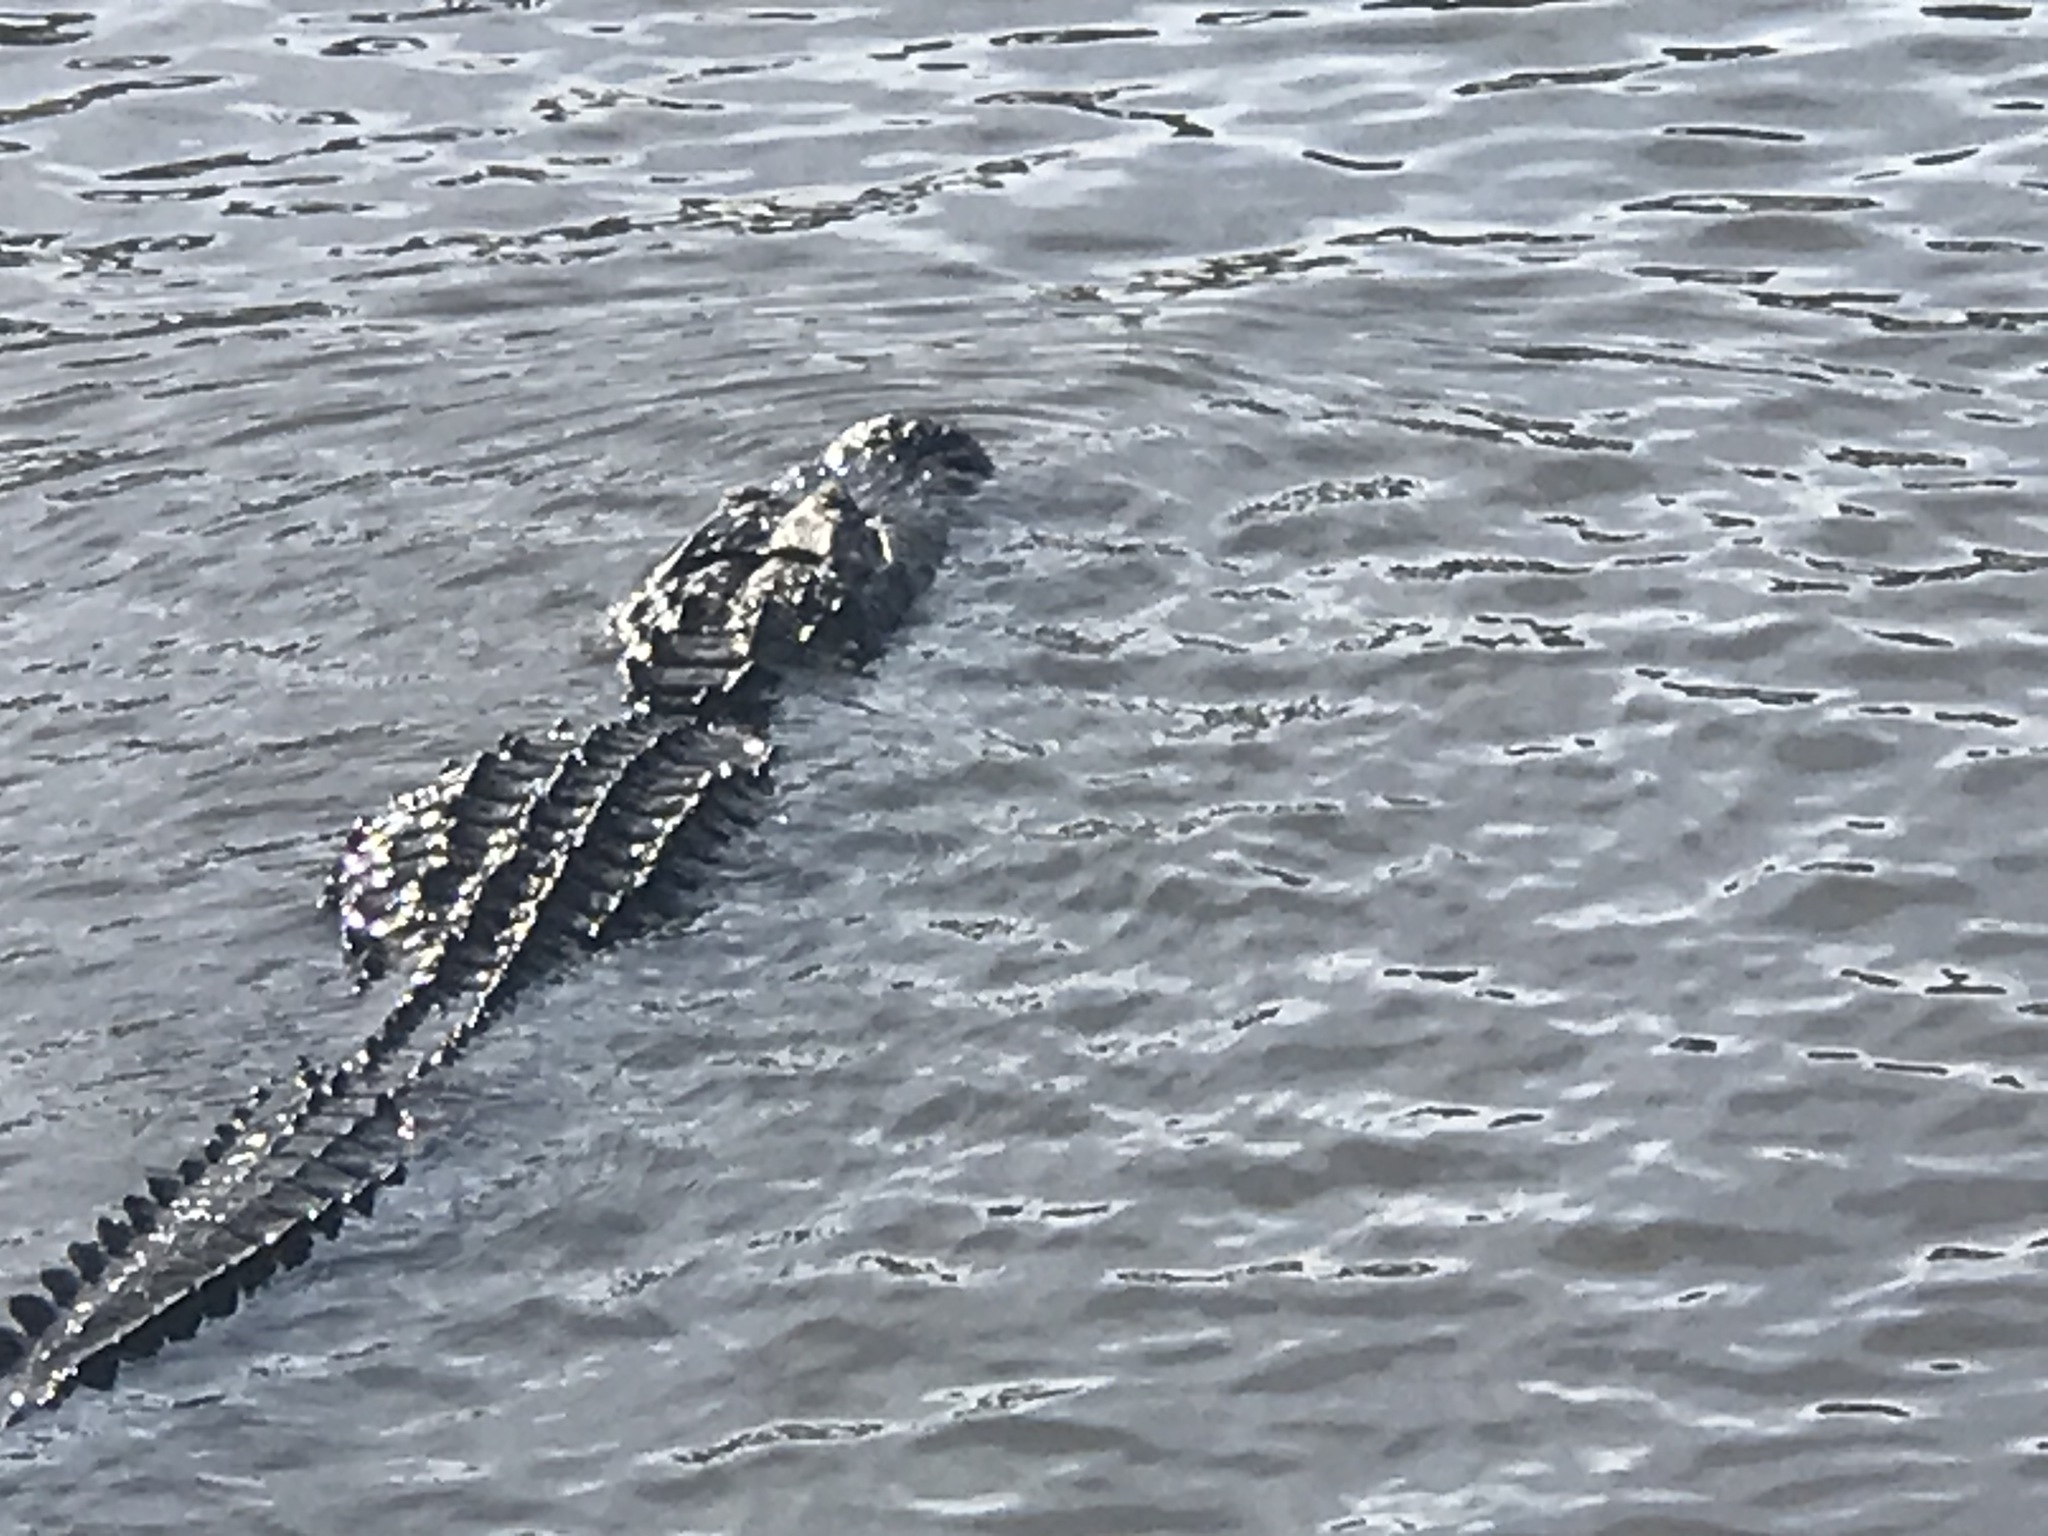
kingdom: Animalia
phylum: Chordata
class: Crocodylia
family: Alligatoridae
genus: Alligator
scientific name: Alligator mississippiensis
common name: American alligator
